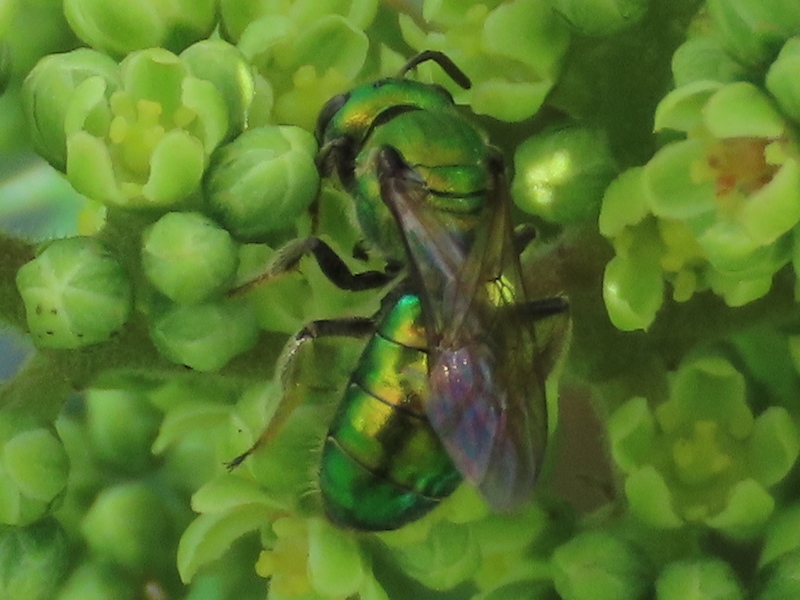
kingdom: Animalia
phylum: Arthropoda
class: Insecta
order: Hymenoptera
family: Halictidae
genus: Augochlora
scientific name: Augochlora pura
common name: Pure green sweat bee
